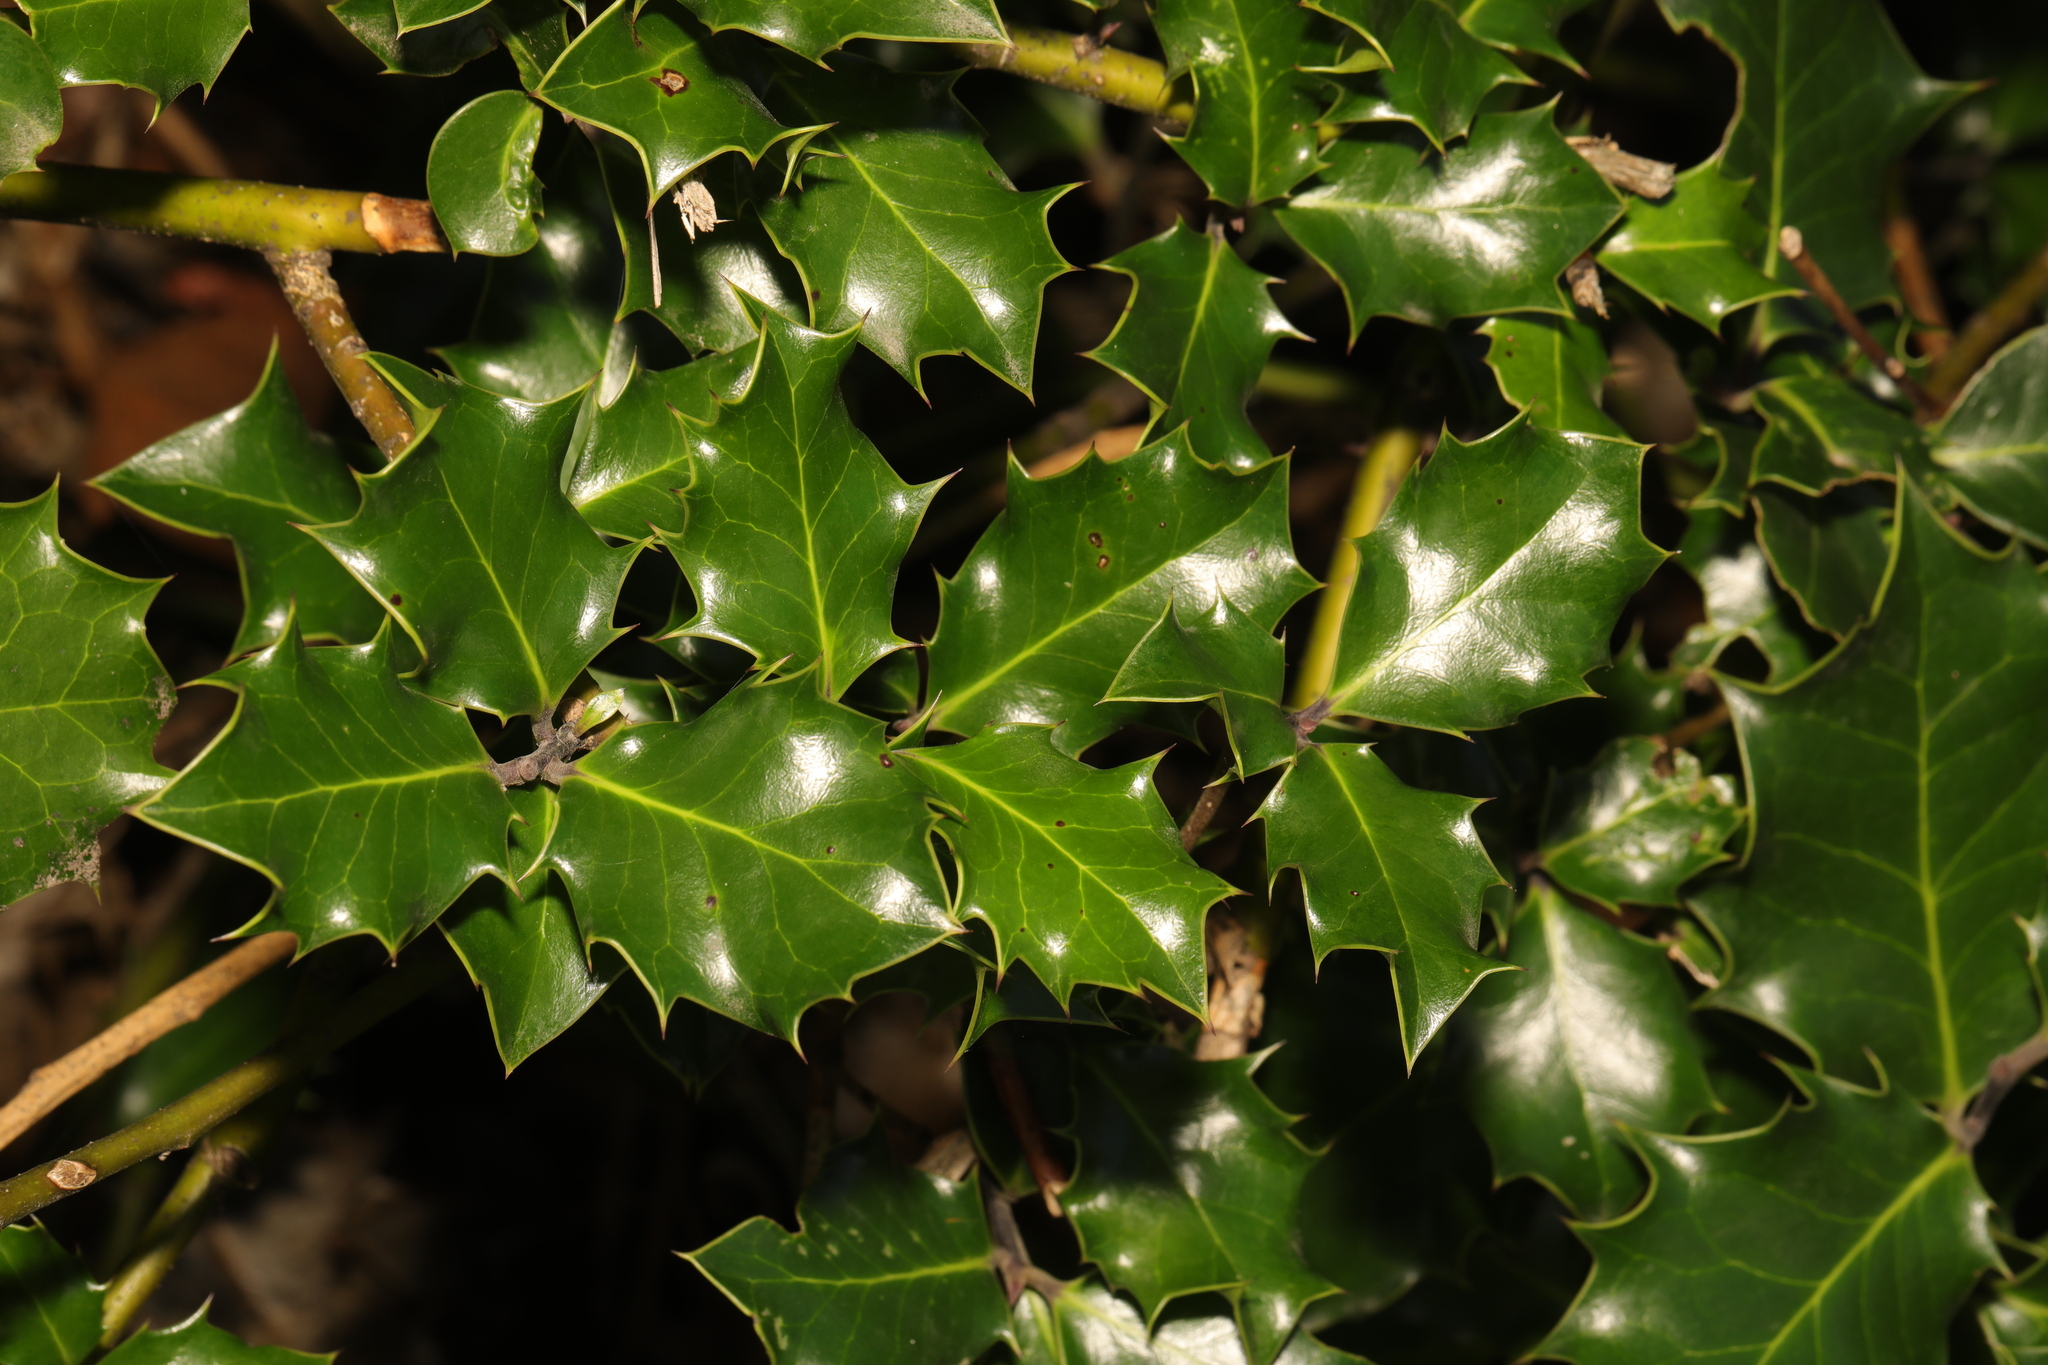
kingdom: Plantae
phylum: Tracheophyta
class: Magnoliopsida
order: Aquifoliales
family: Aquifoliaceae
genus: Ilex
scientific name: Ilex aquifolium
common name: English holly
